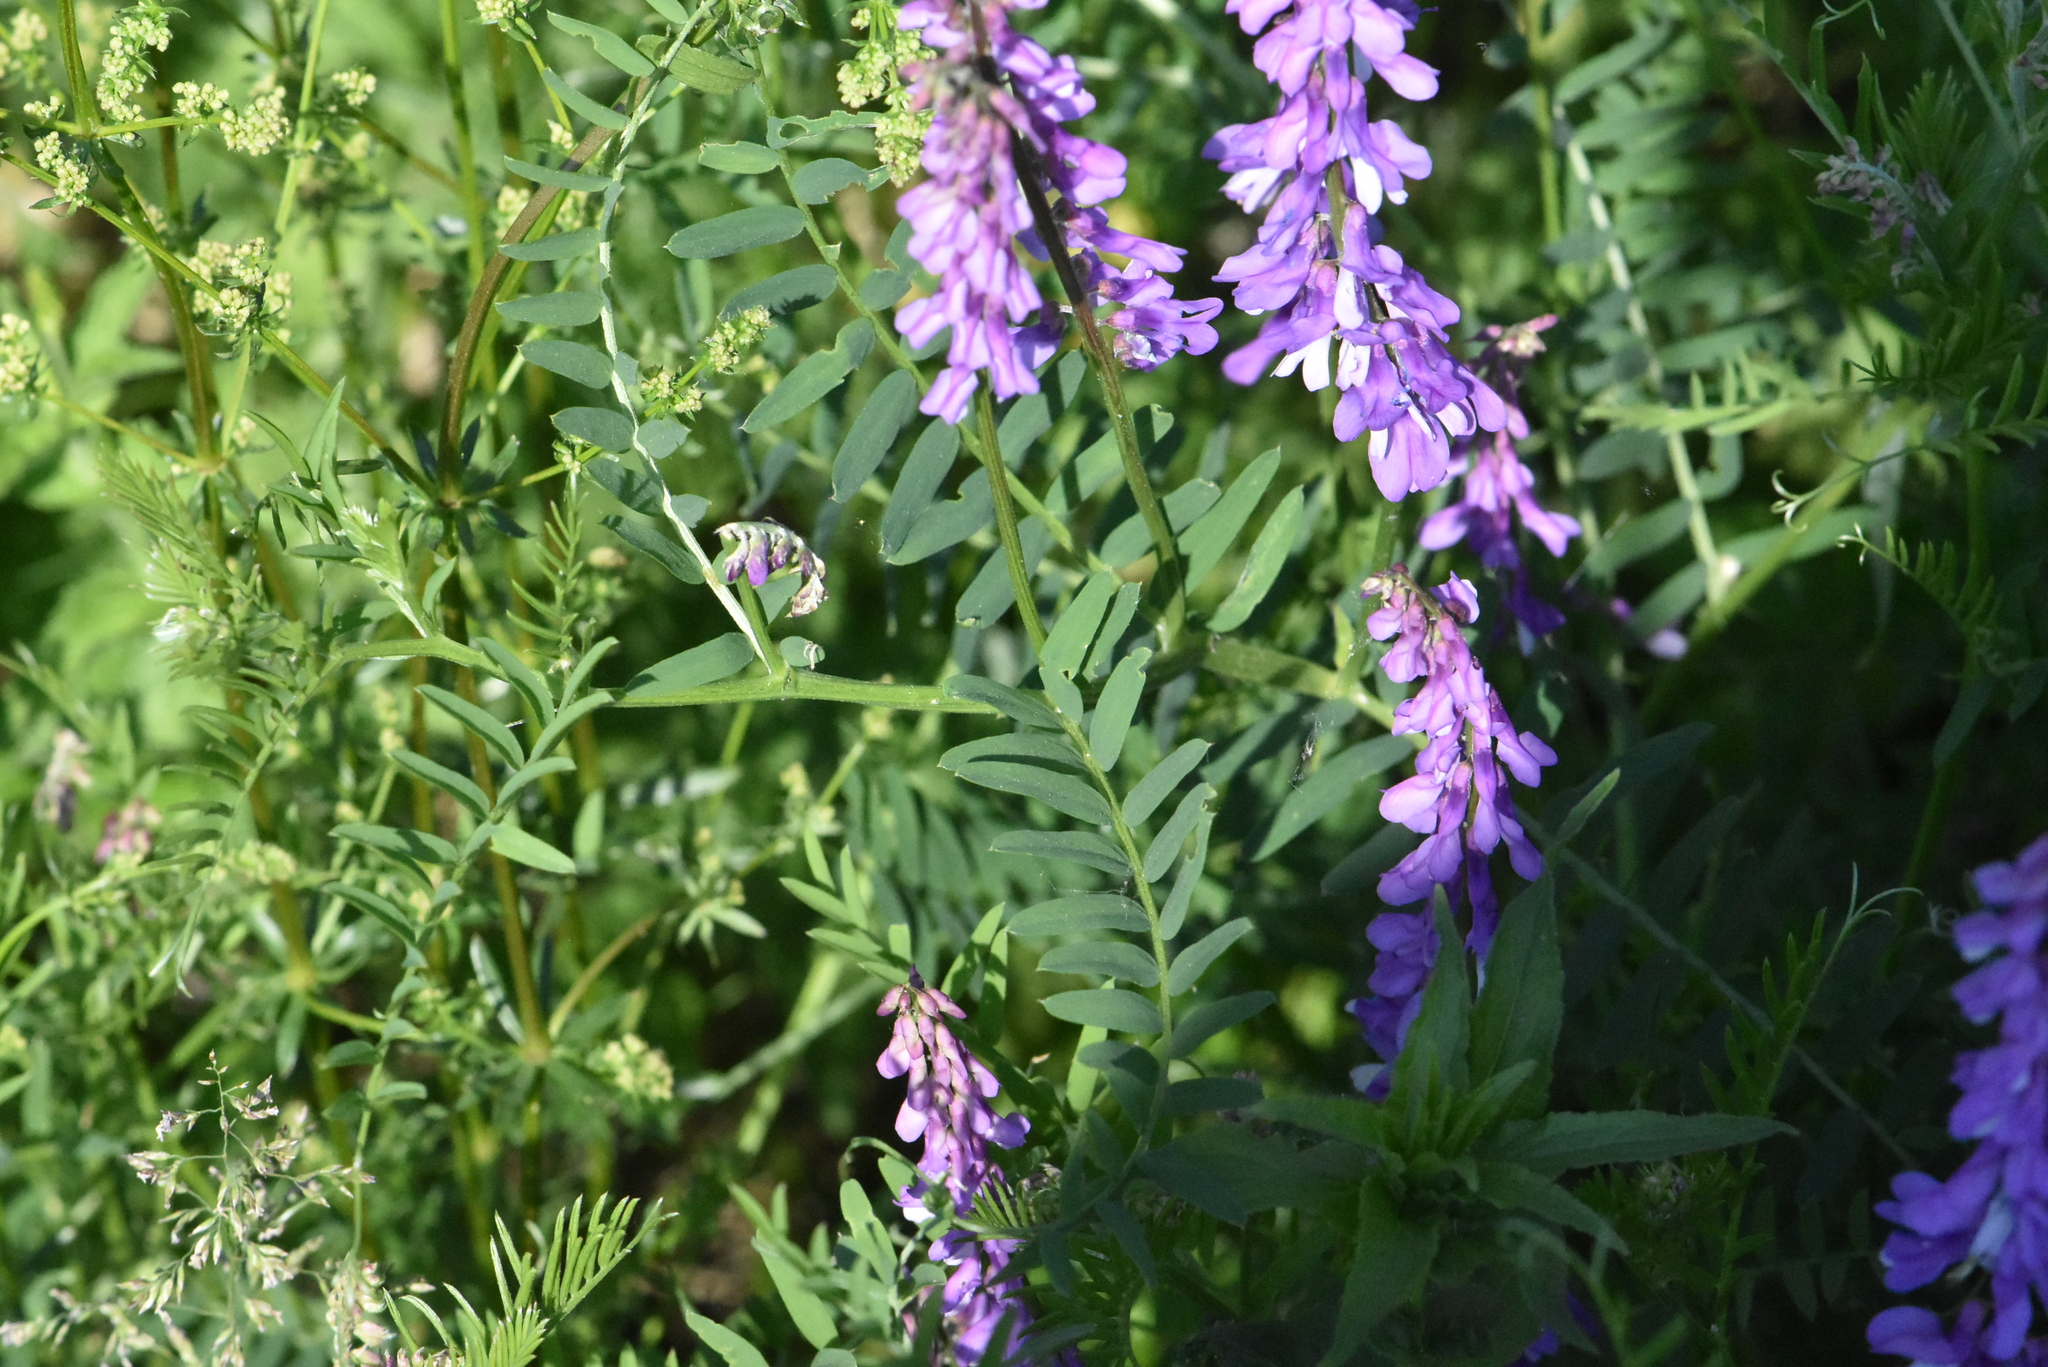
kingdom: Plantae
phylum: Tracheophyta
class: Magnoliopsida
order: Fabales
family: Fabaceae
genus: Vicia
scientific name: Vicia cracca
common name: Bird vetch
